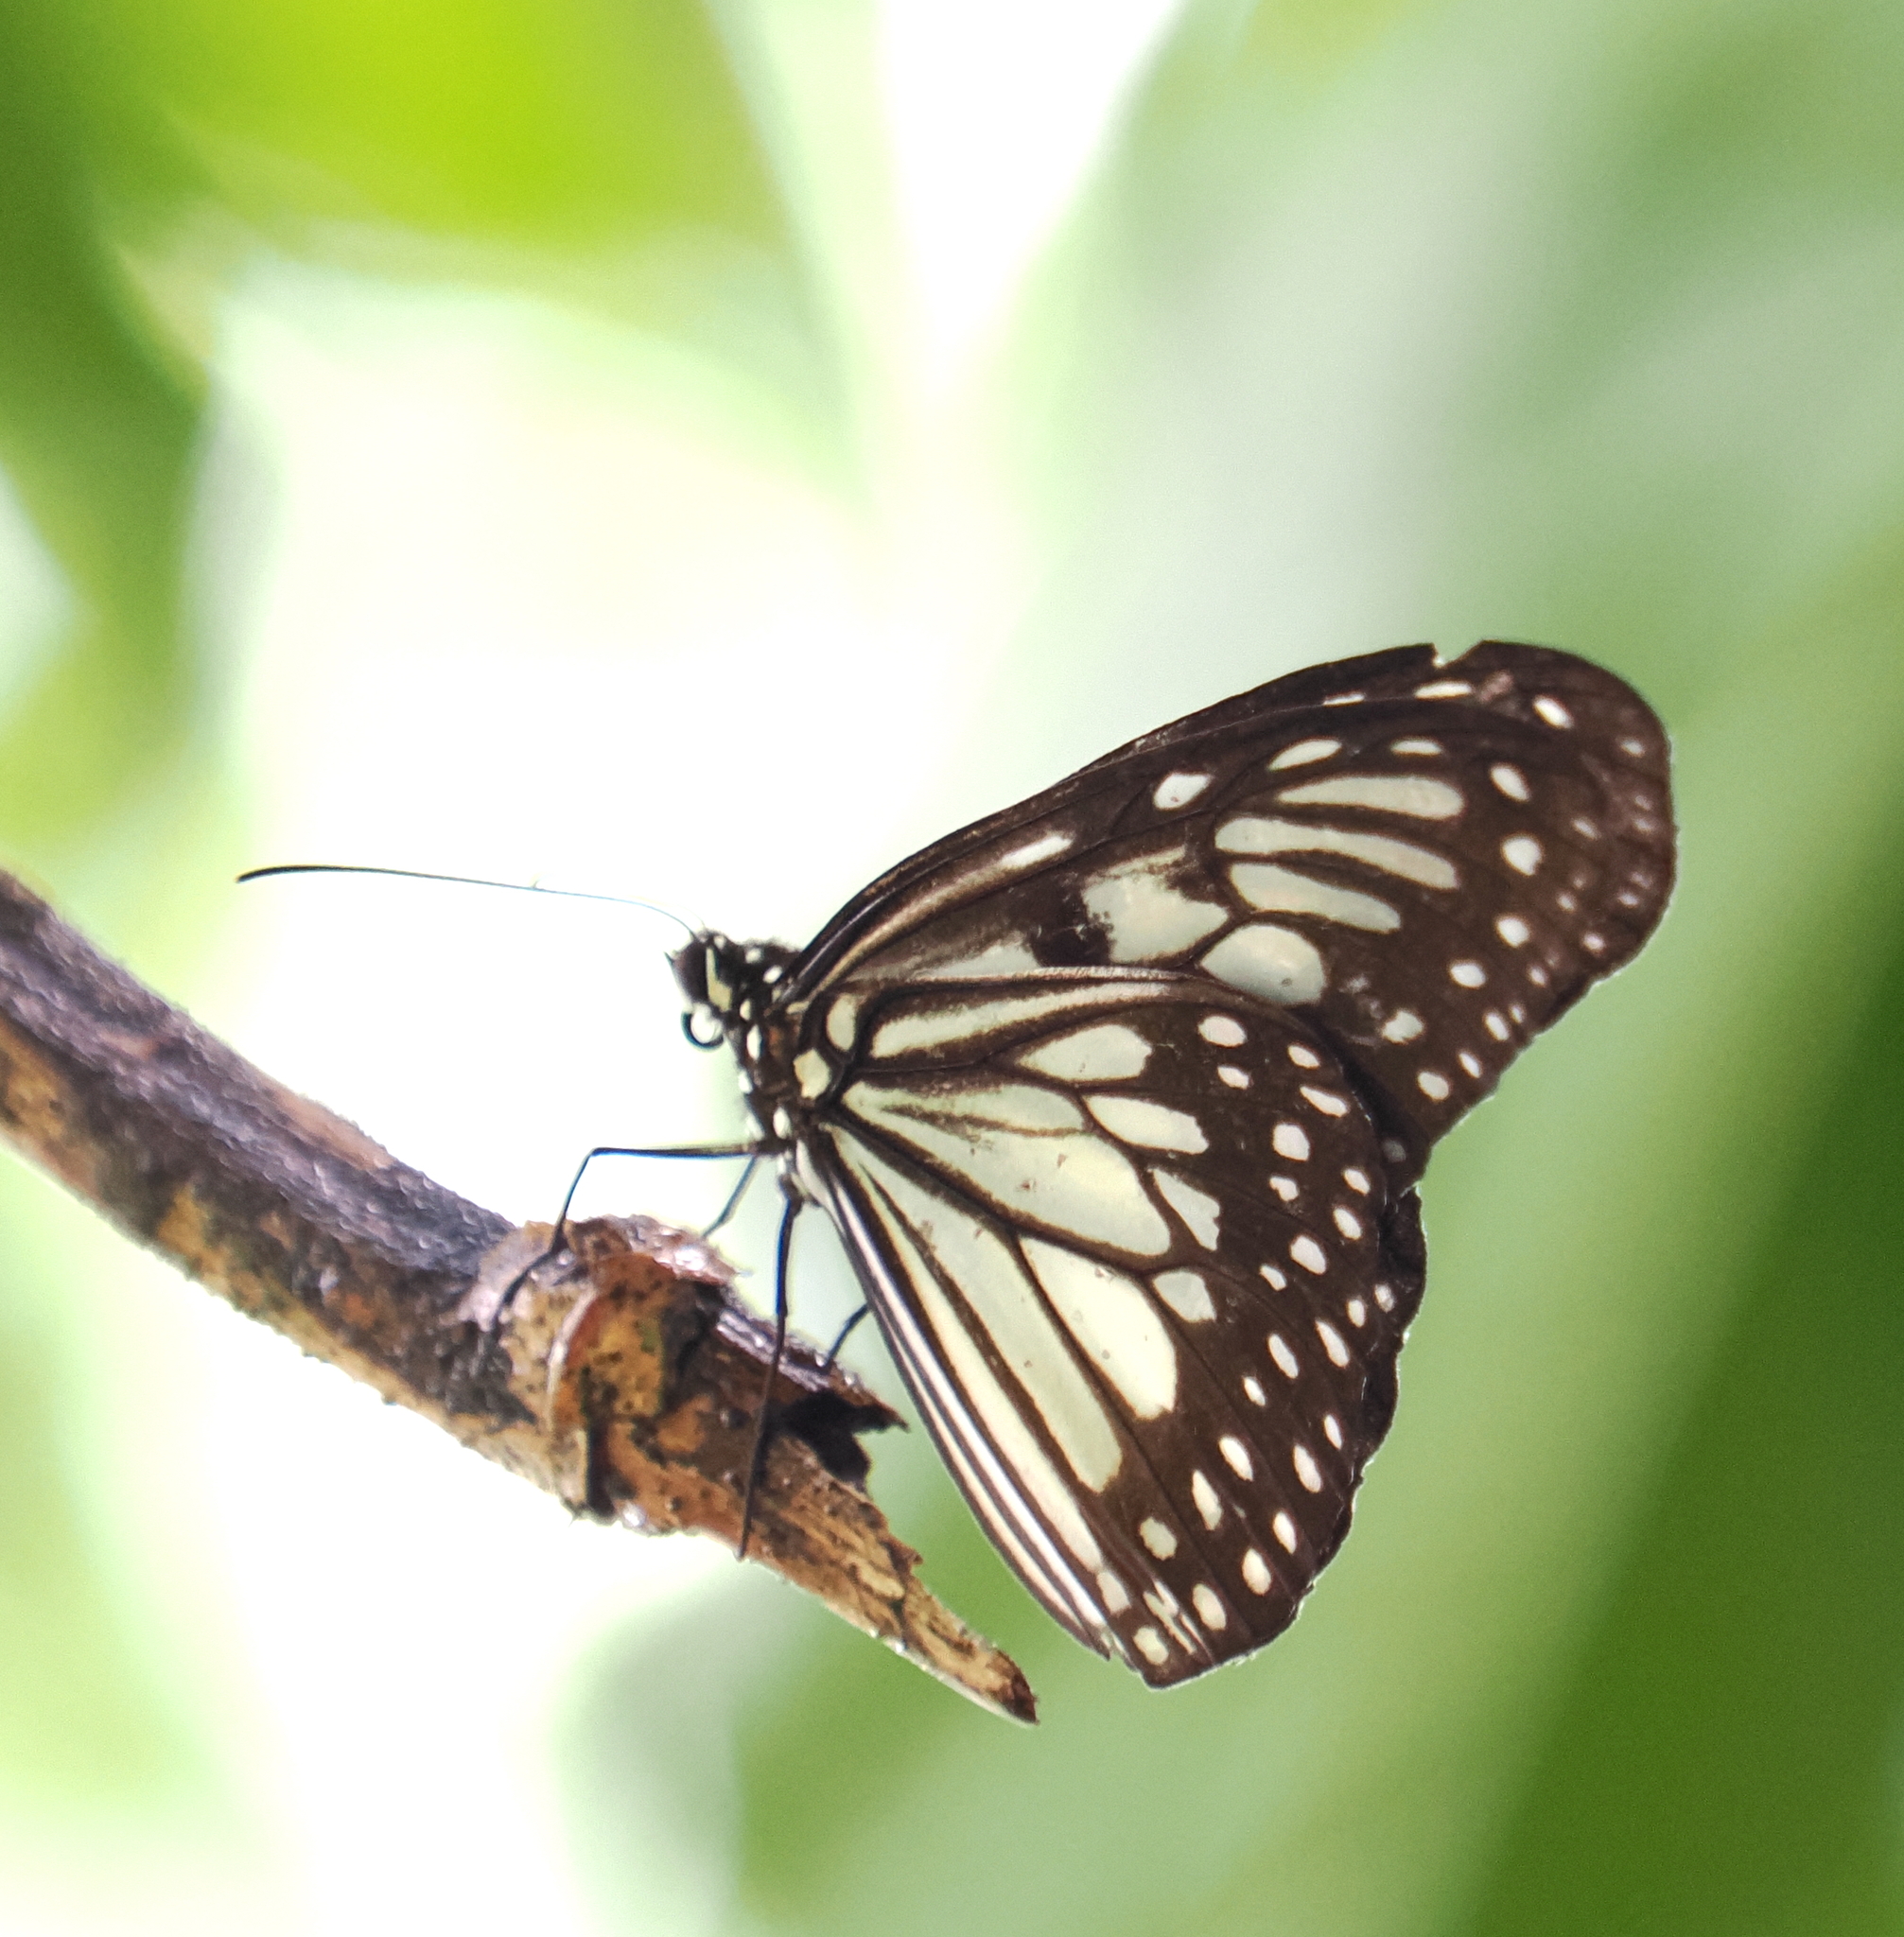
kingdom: Animalia
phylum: Arthropoda
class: Insecta
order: Lepidoptera
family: Nymphalidae
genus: Ideopsis
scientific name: Ideopsis juventa
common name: Grey glassy tiger
